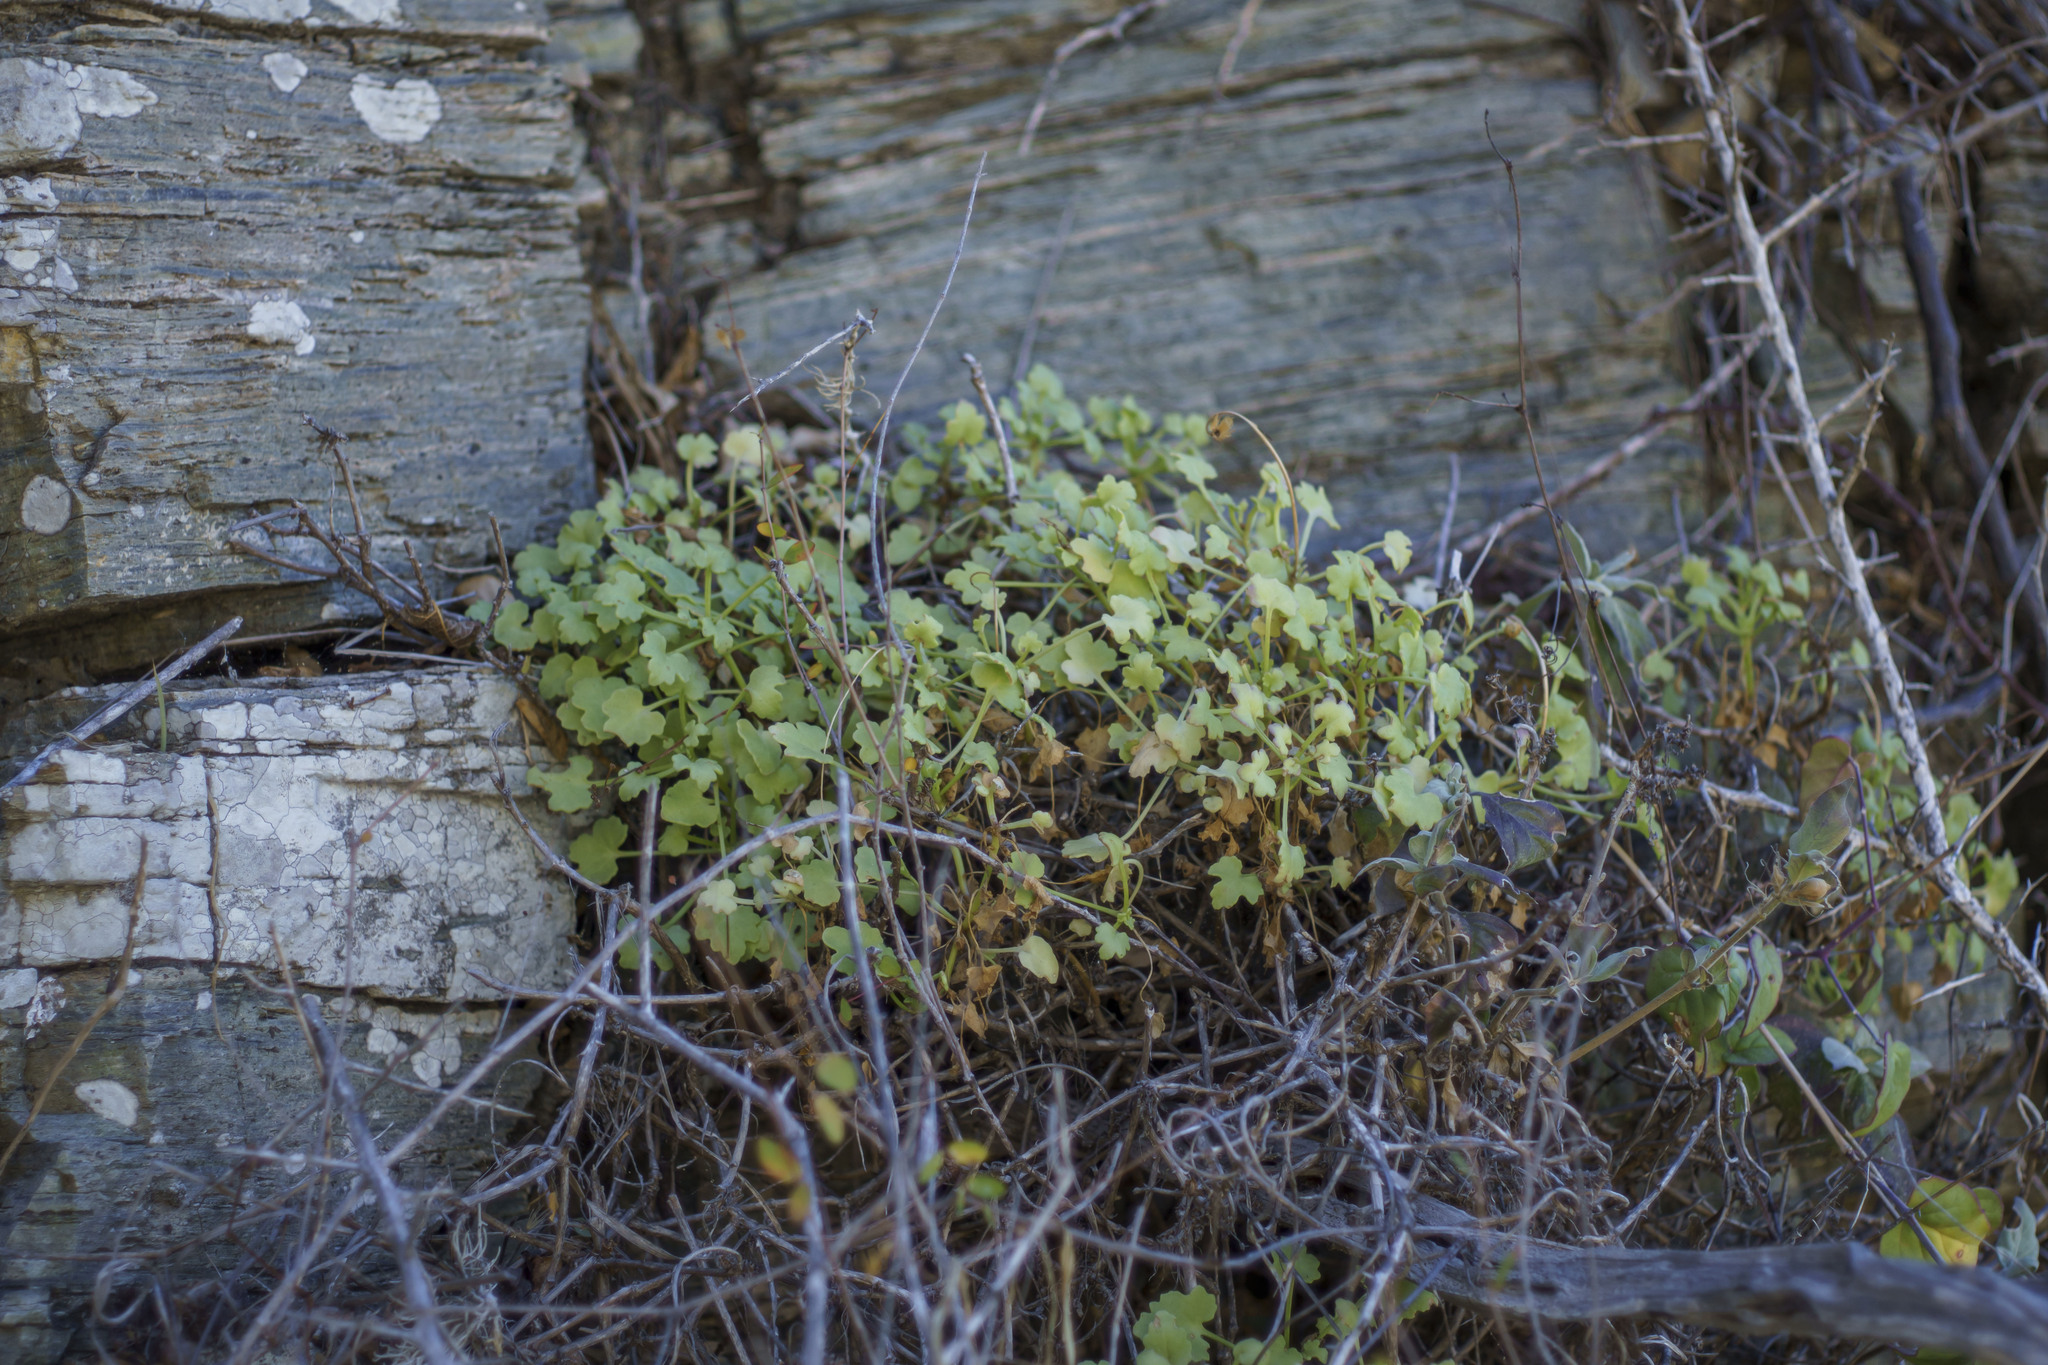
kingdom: Plantae
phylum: Tracheophyta
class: Magnoliopsida
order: Asterales
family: Asteraceae
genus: Hofmeisteria
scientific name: Hofmeisteria fasciculata
